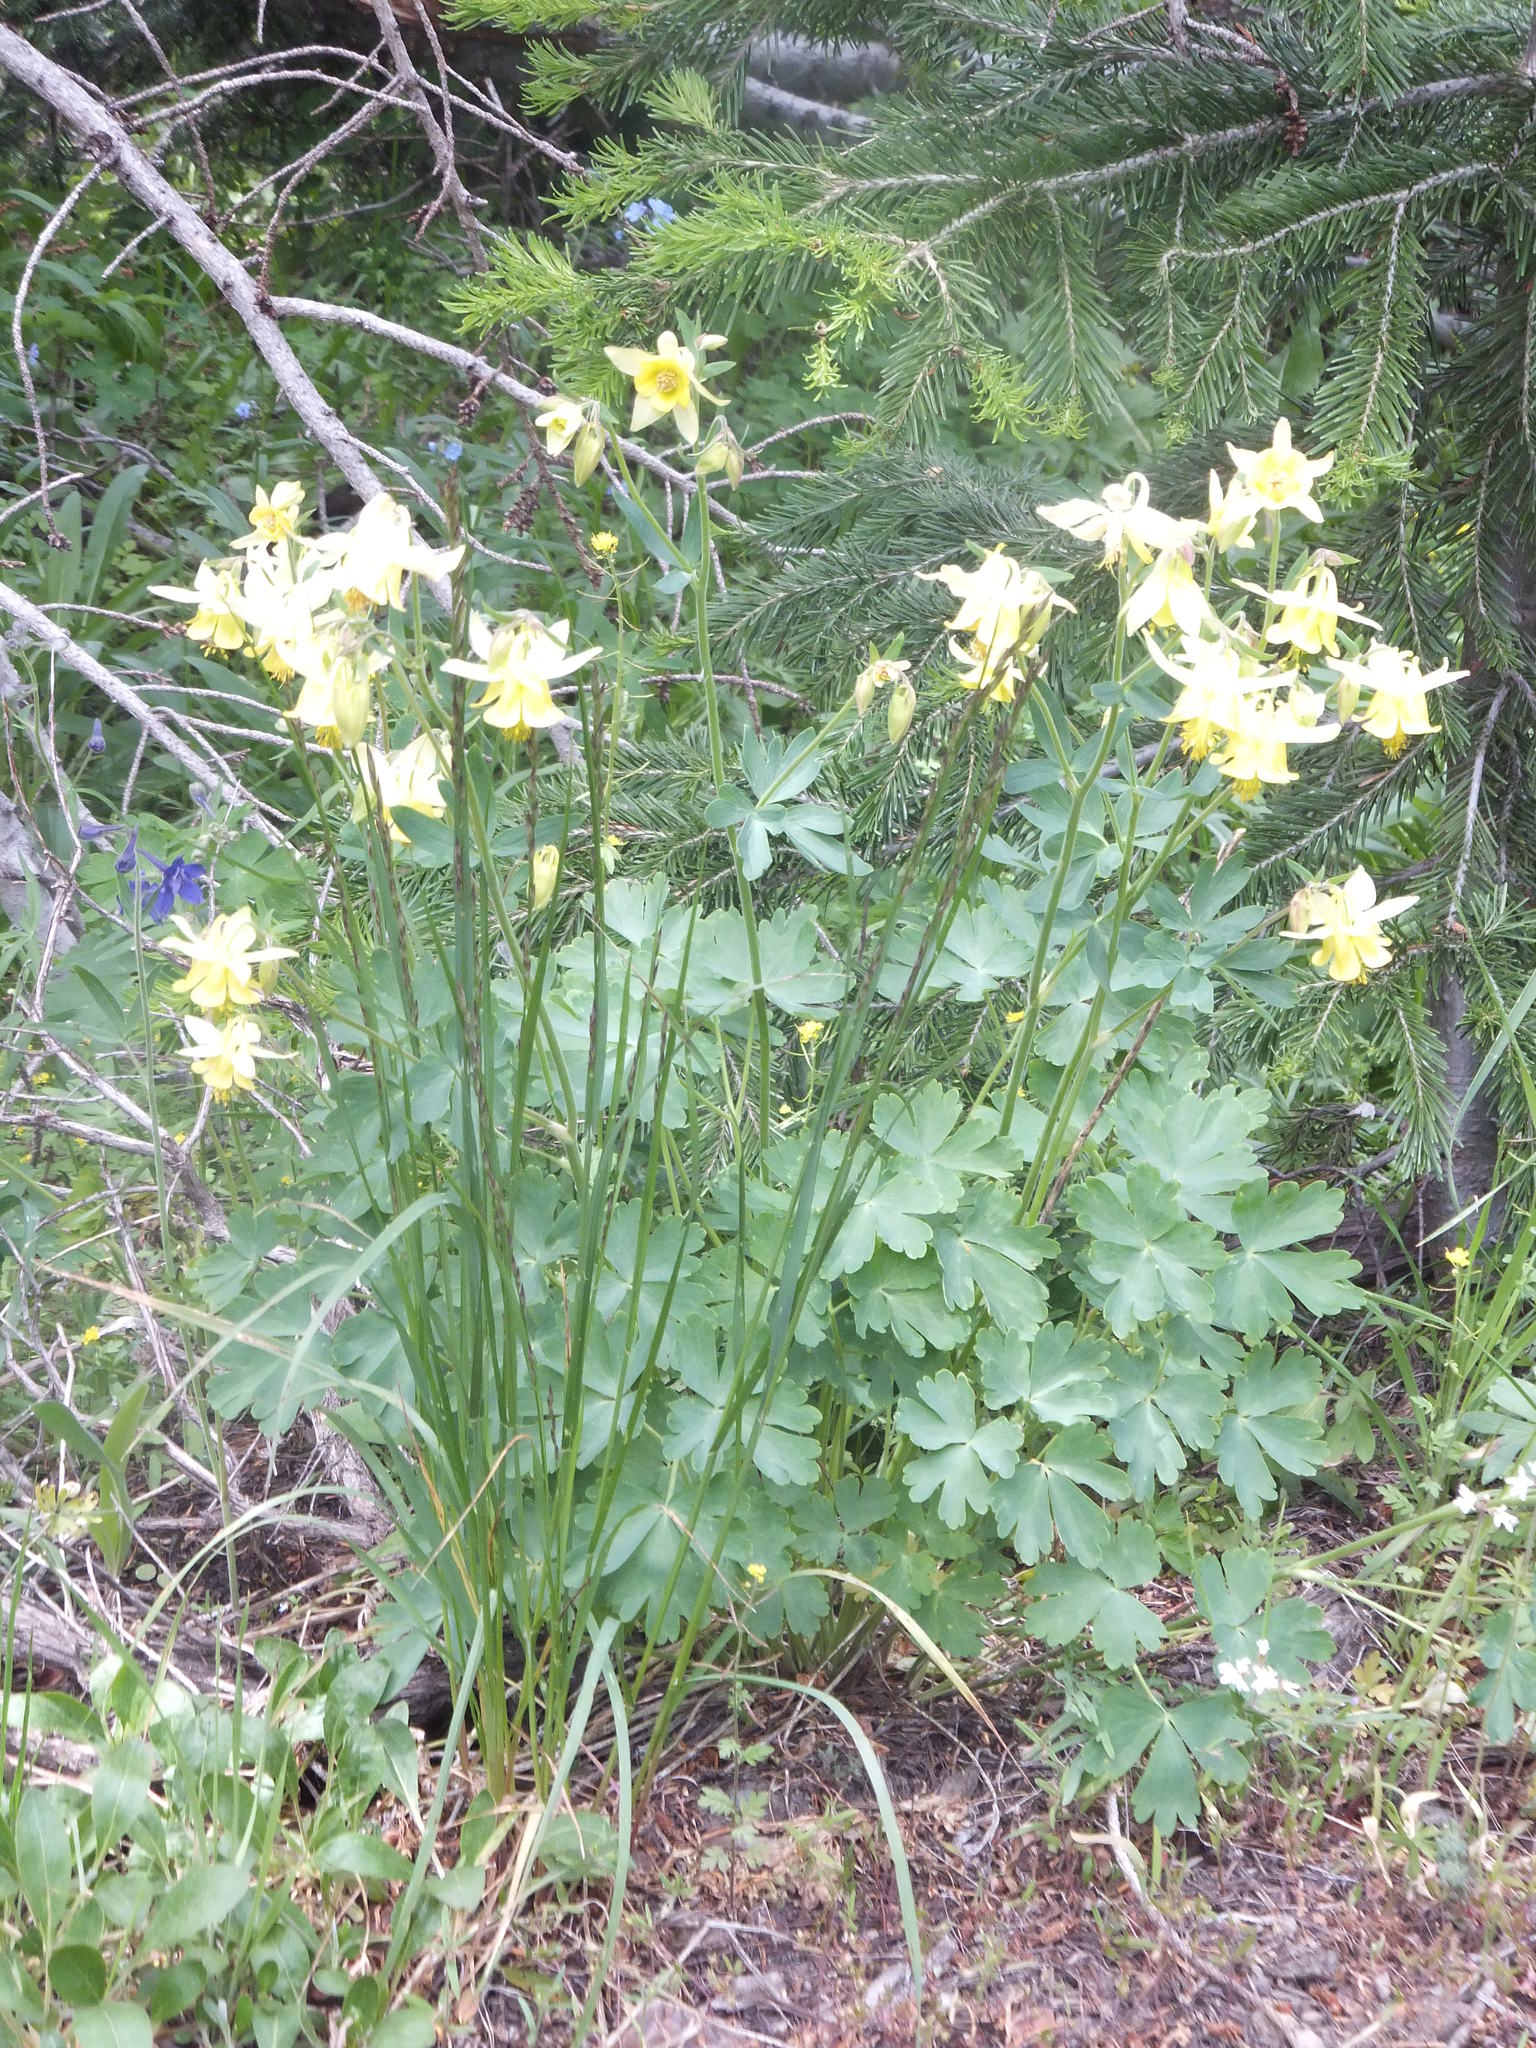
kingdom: Plantae
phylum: Tracheophyta
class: Magnoliopsida
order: Ranunculales
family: Ranunculaceae
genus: Aquilegia
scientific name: Aquilegia flavescens
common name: Yellow columbine
